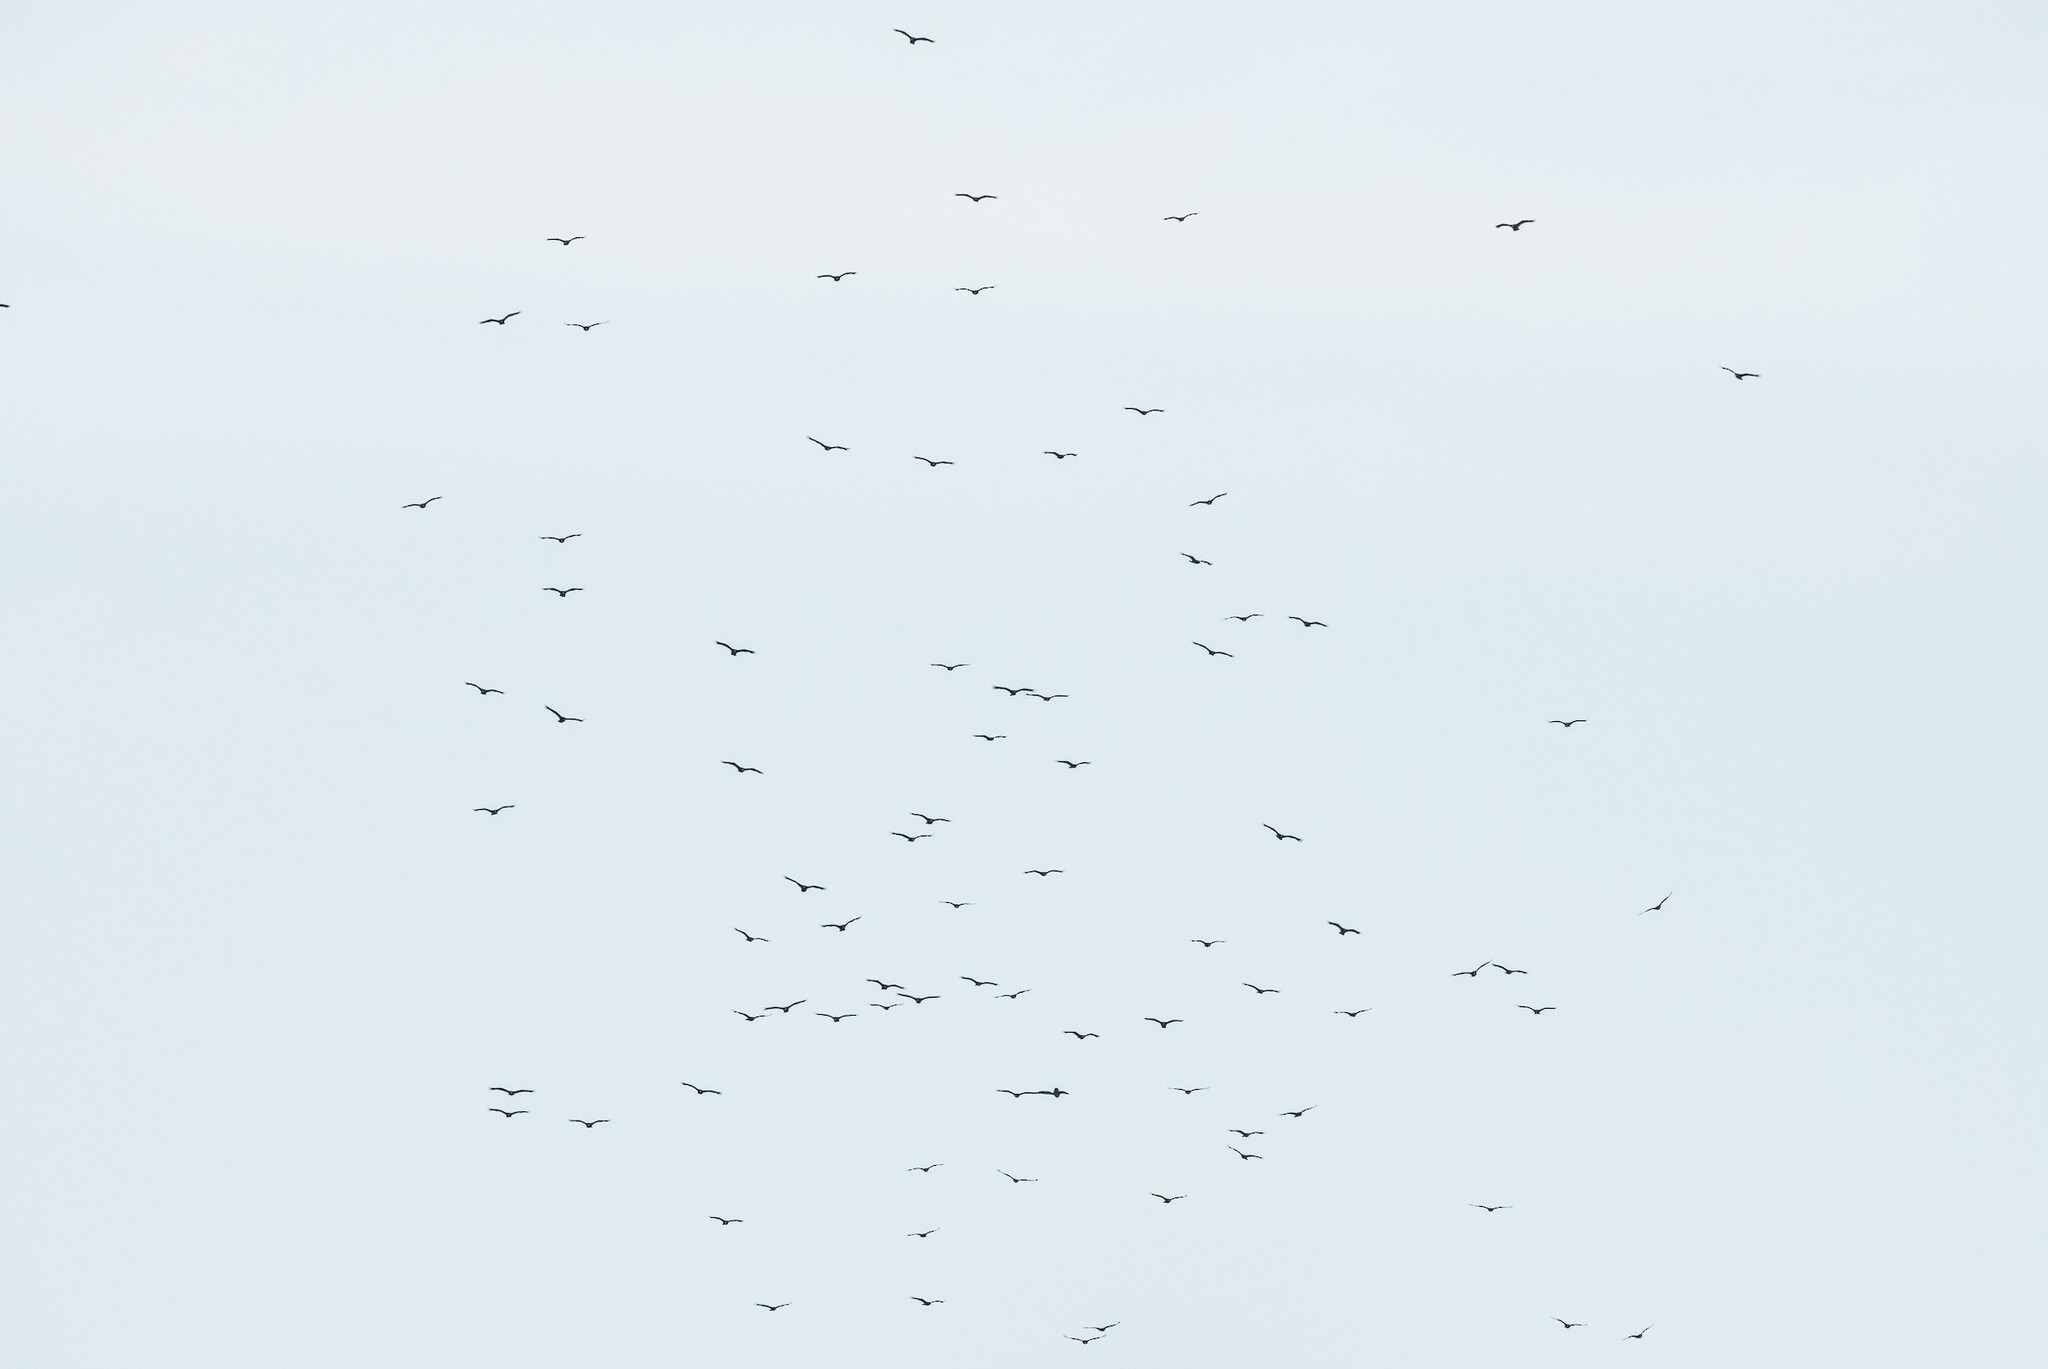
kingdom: Animalia
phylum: Chordata
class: Aves
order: Accipitriformes
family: Cathartidae
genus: Cathartes
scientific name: Cathartes aura
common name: Turkey vulture
